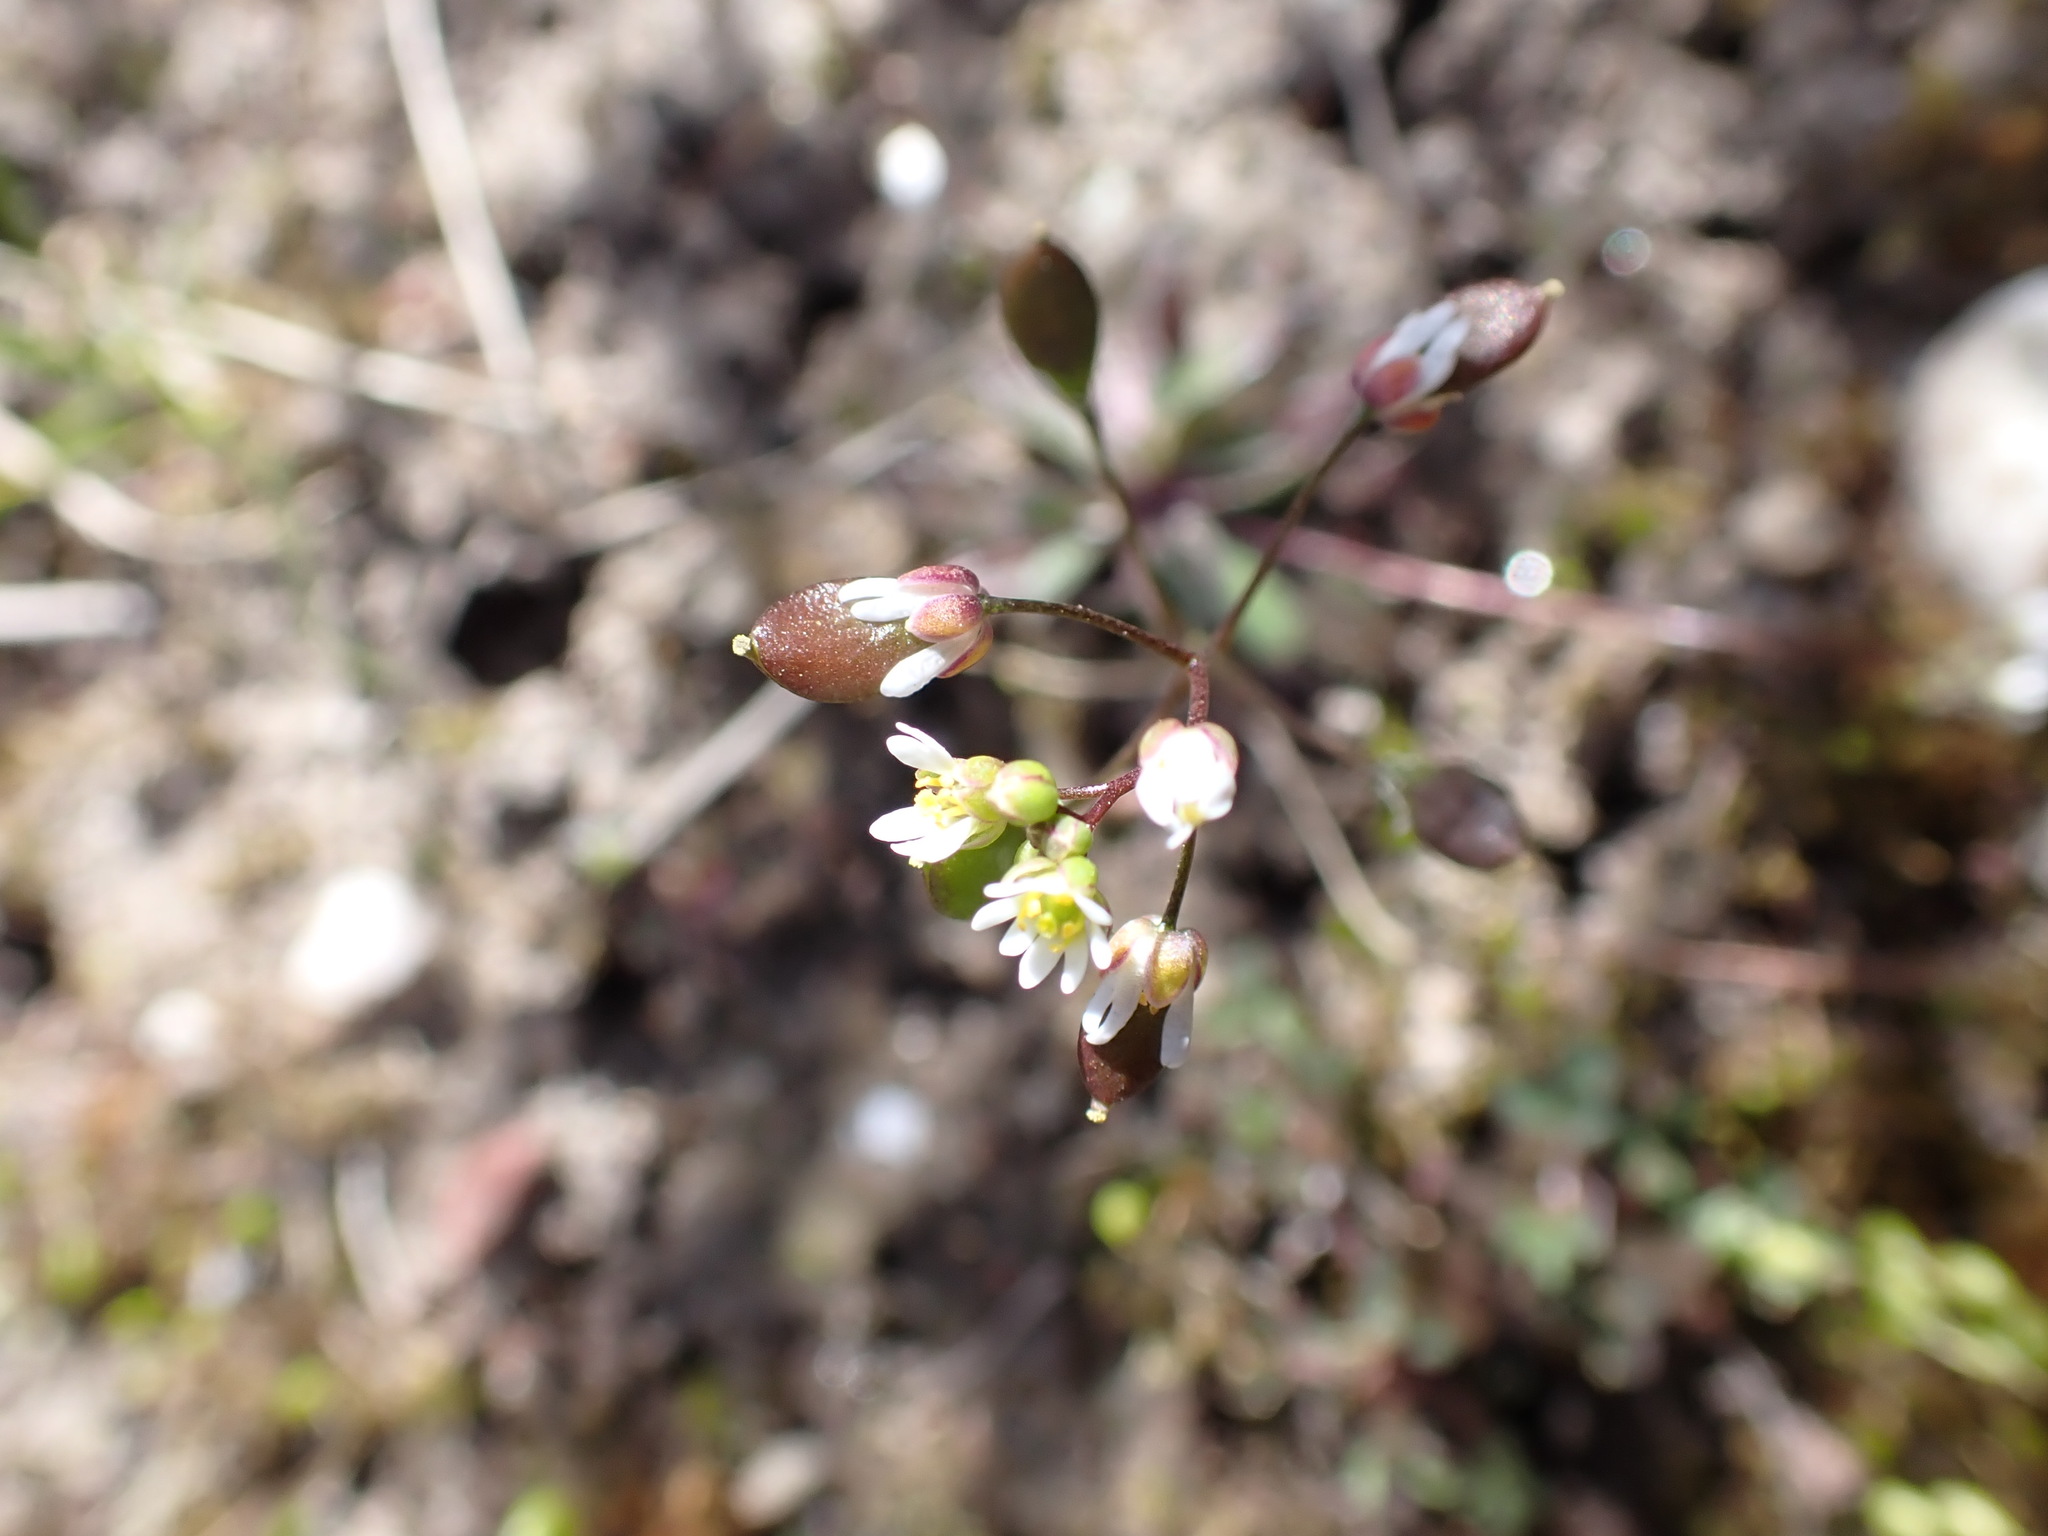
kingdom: Plantae
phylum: Tracheophyta
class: Magnoliopsida
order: Brassicales
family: Brassicaceae
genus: Draba
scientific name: Draba verna
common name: Spring draba
